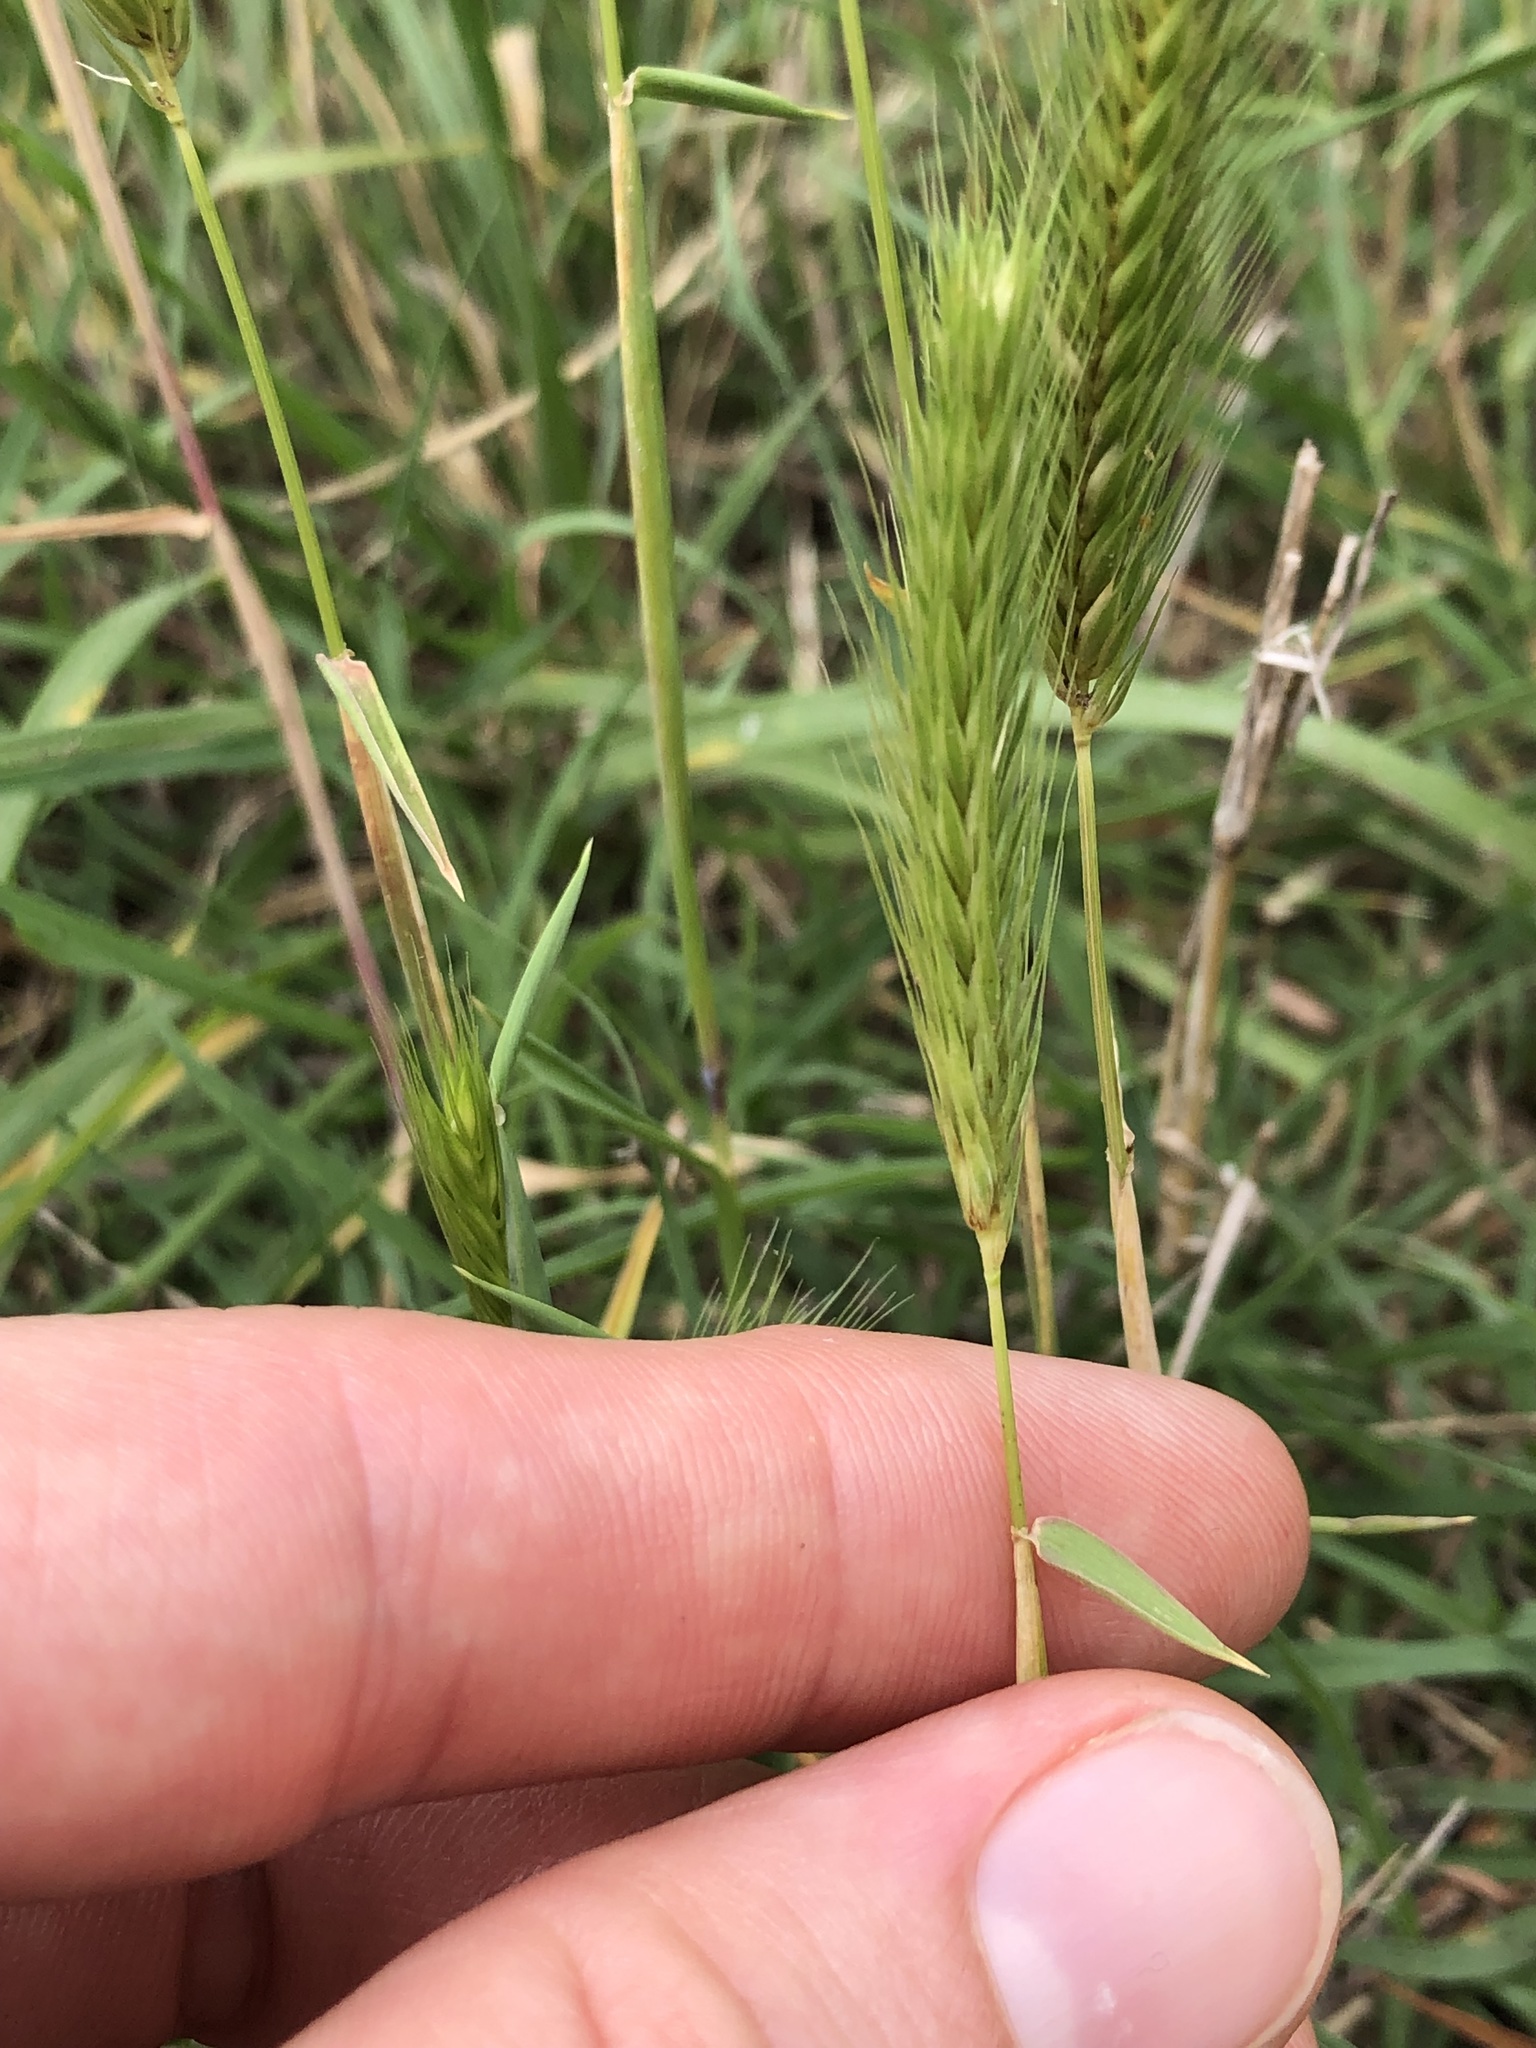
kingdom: Plantae
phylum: Tracheophyta
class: Liliopsida
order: Poales
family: Poaceae
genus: Hordeum
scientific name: Hordeum pusillum
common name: Little barley
